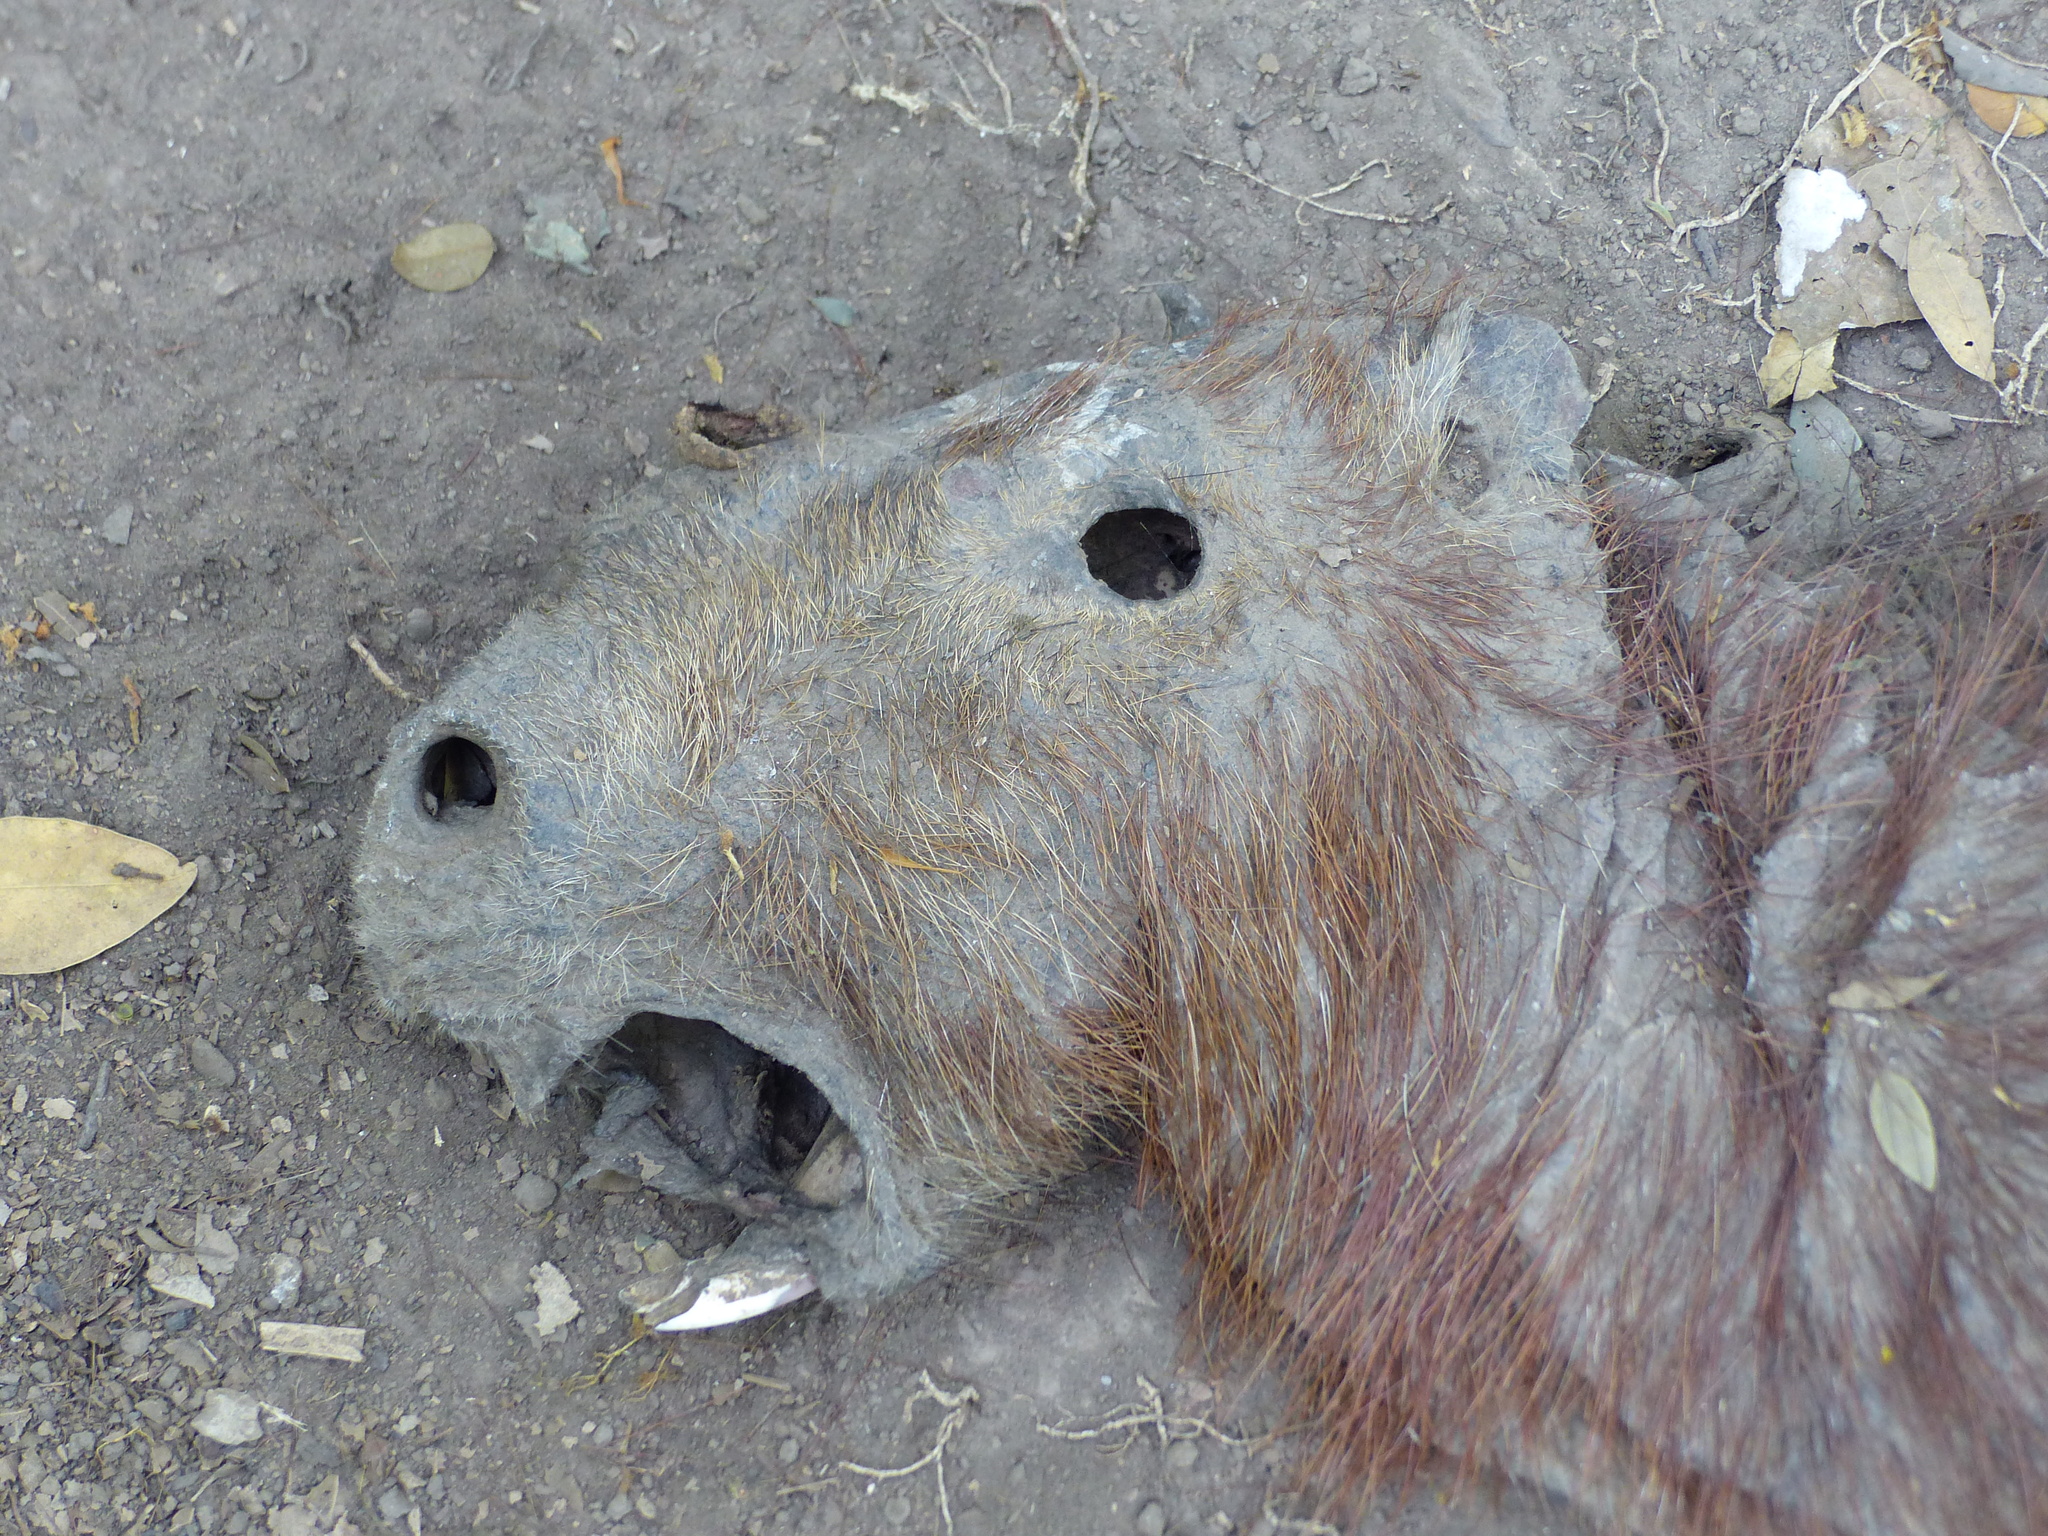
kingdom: Animalia
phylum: Chordata
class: Mammalia
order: Rodentia
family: Caviidae
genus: Hydrochoerus
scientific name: Hydrochoerus hydrochaeris
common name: Capybara
